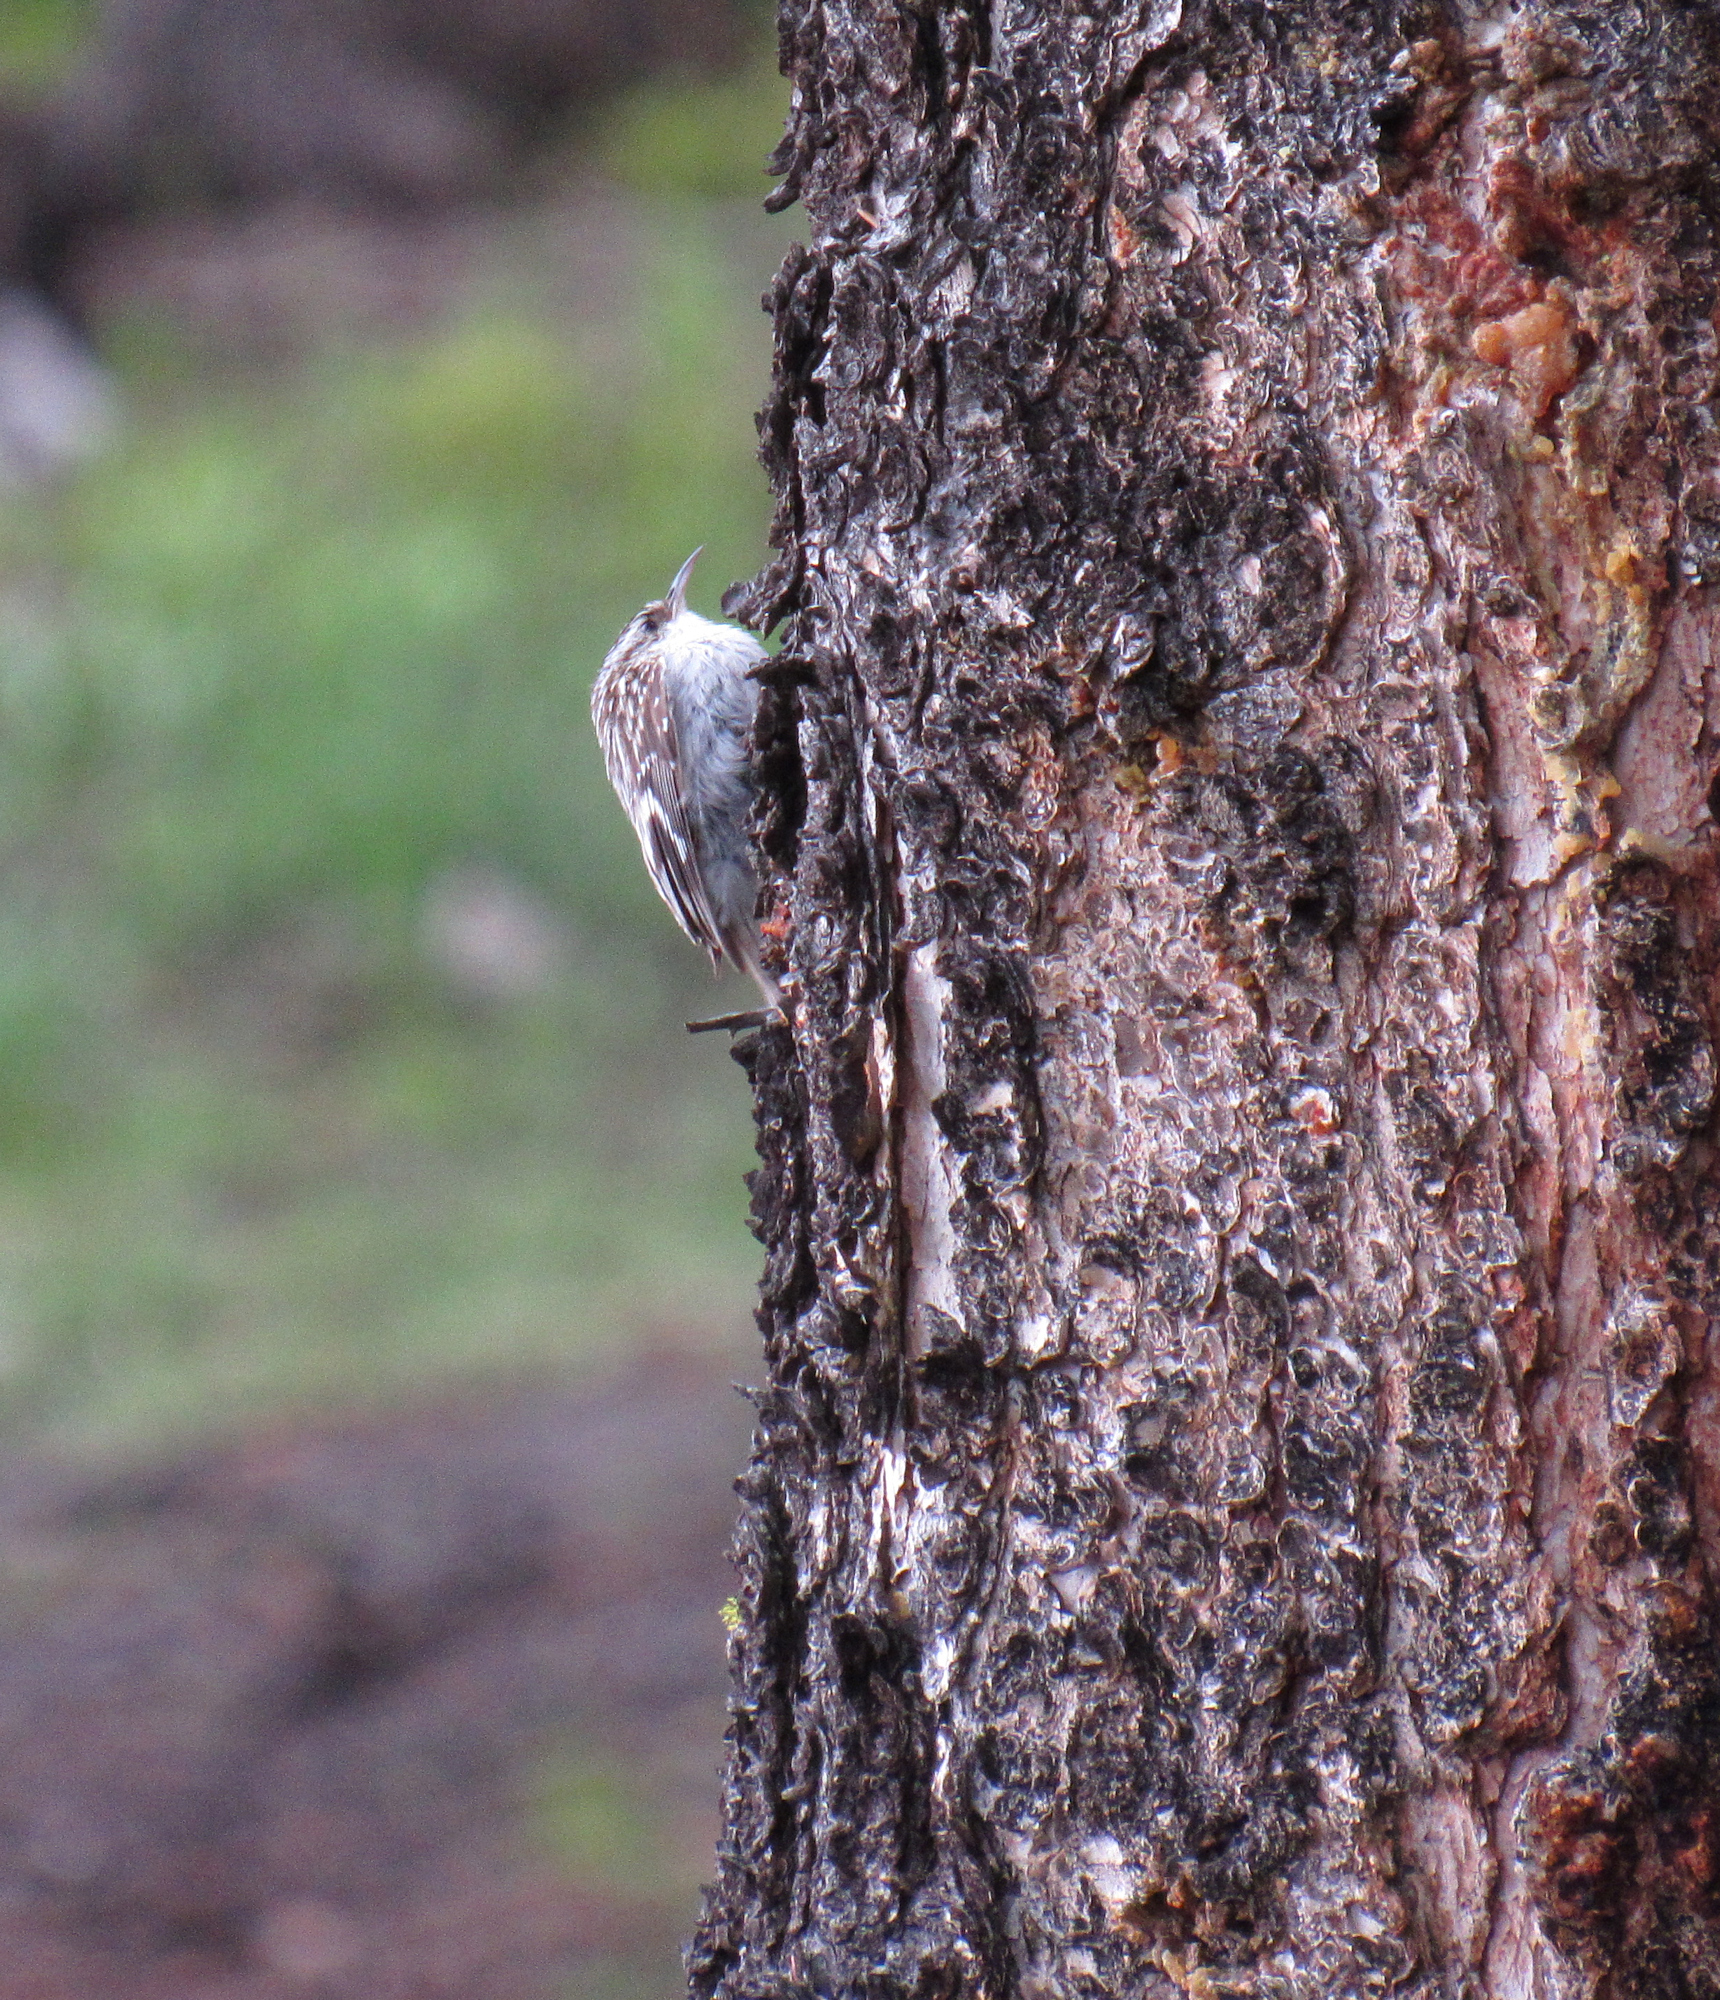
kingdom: Animalia
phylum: Chordata
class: Aves
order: Passeriformes
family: Certhiidae
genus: Certhia
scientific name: Certhia americana
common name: Brown creeper
